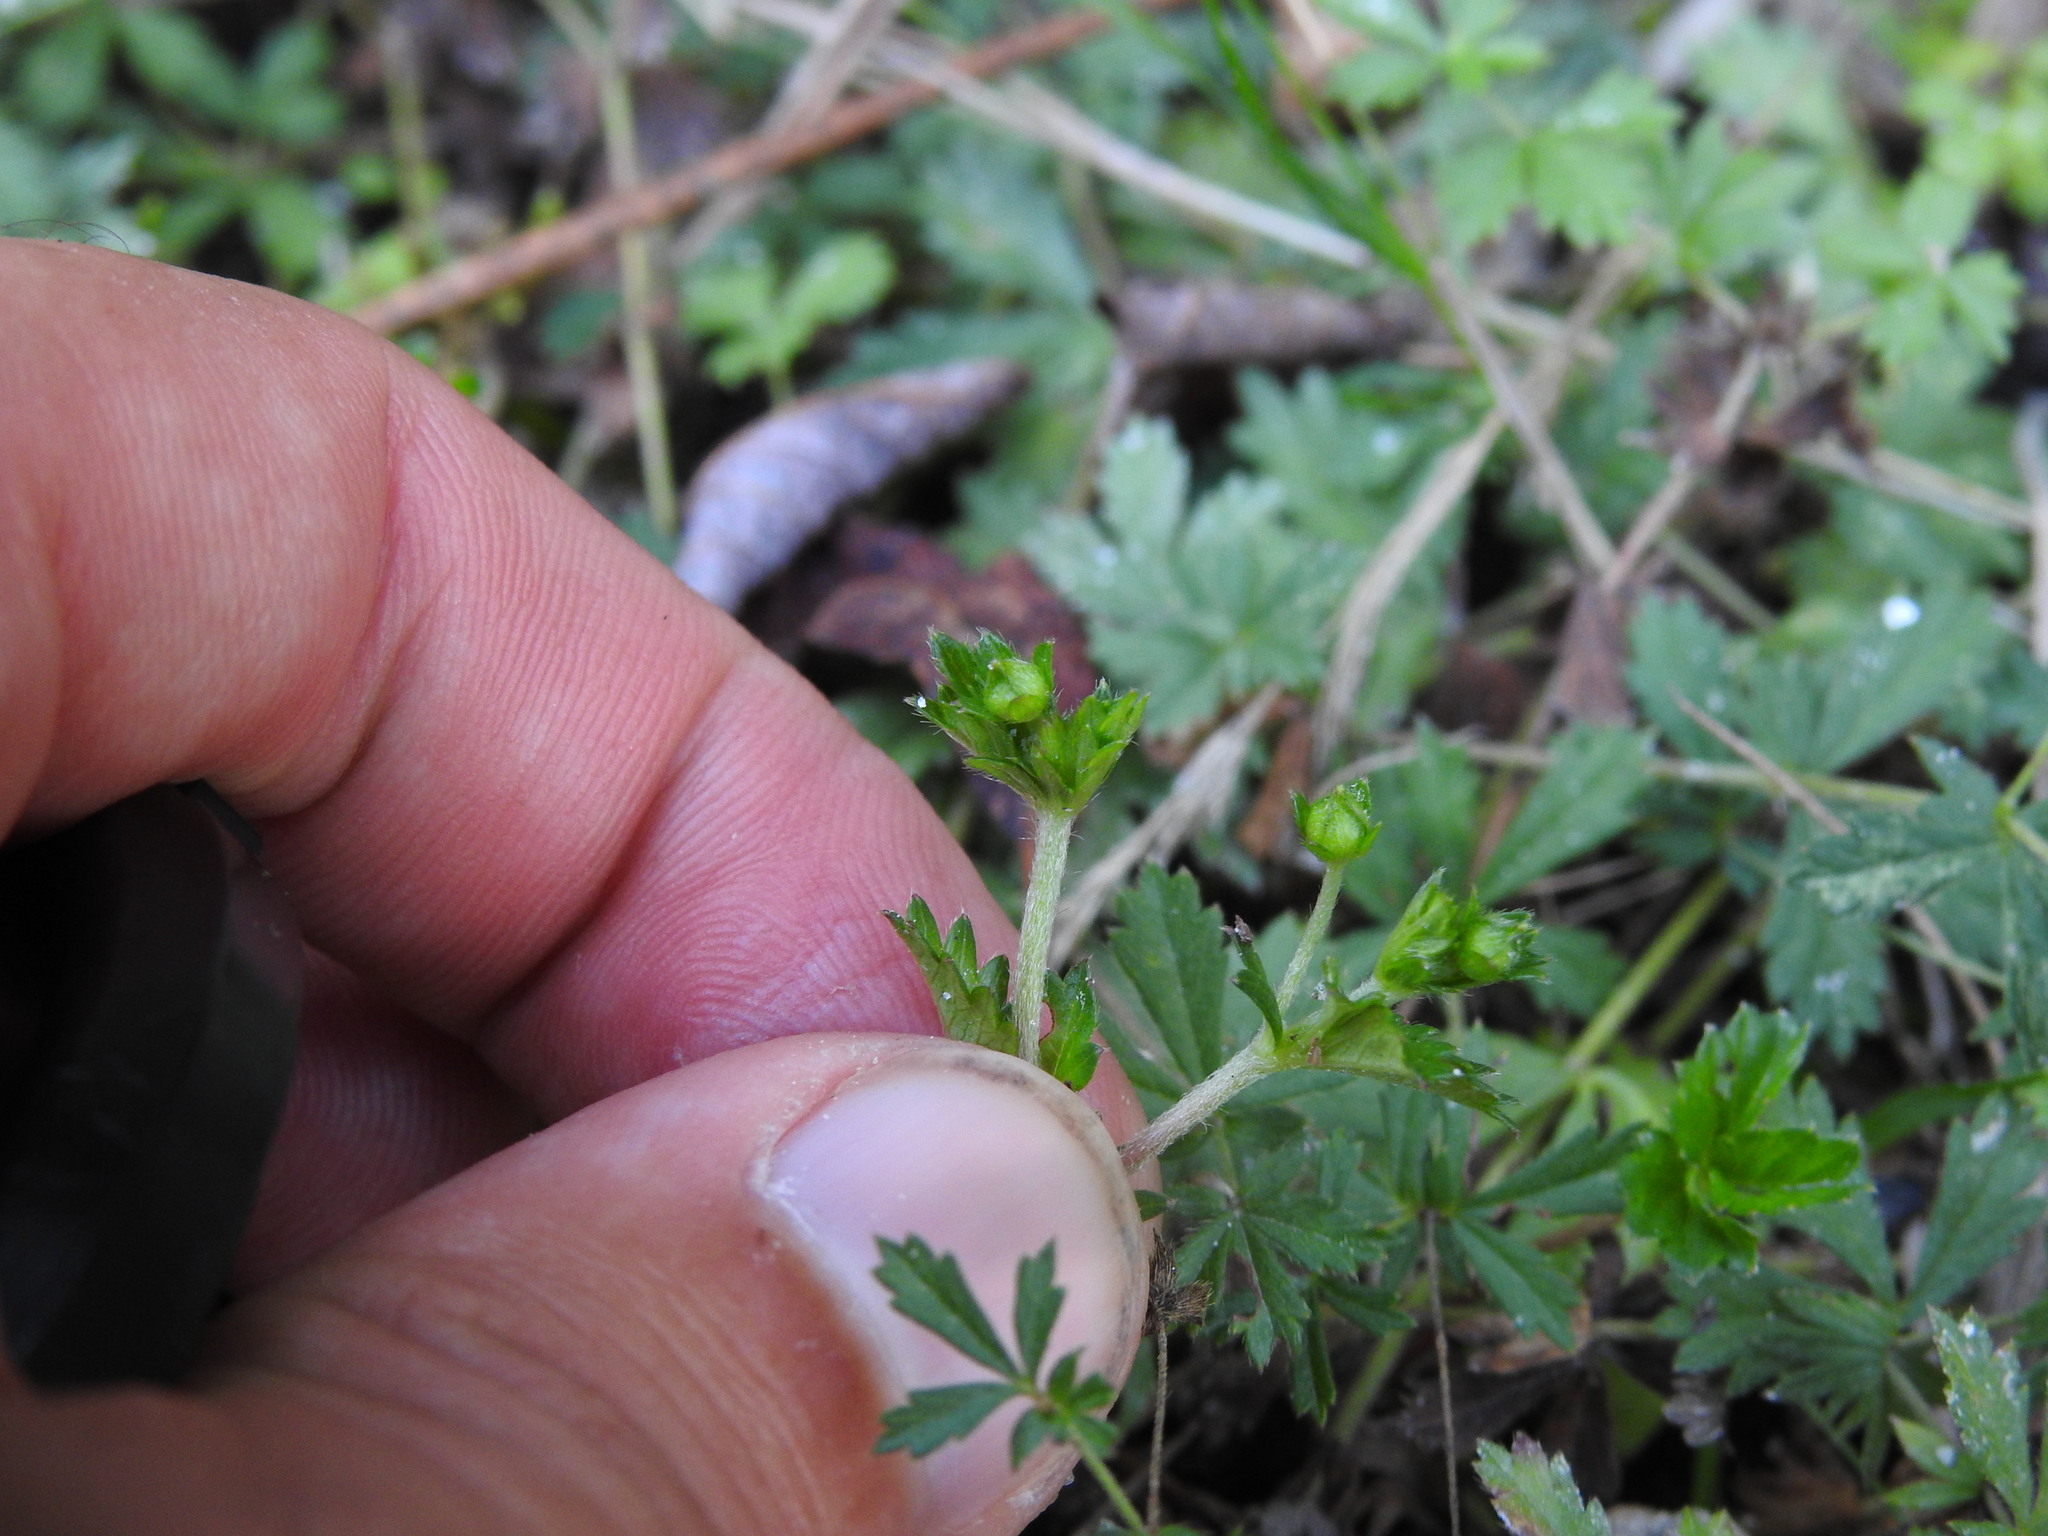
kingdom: Plantae
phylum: Tracheophyta
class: Magnoliopsida
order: Rosales
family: Rosaceae
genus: Potentilla
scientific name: Potentilla erecta
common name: Tormentil
